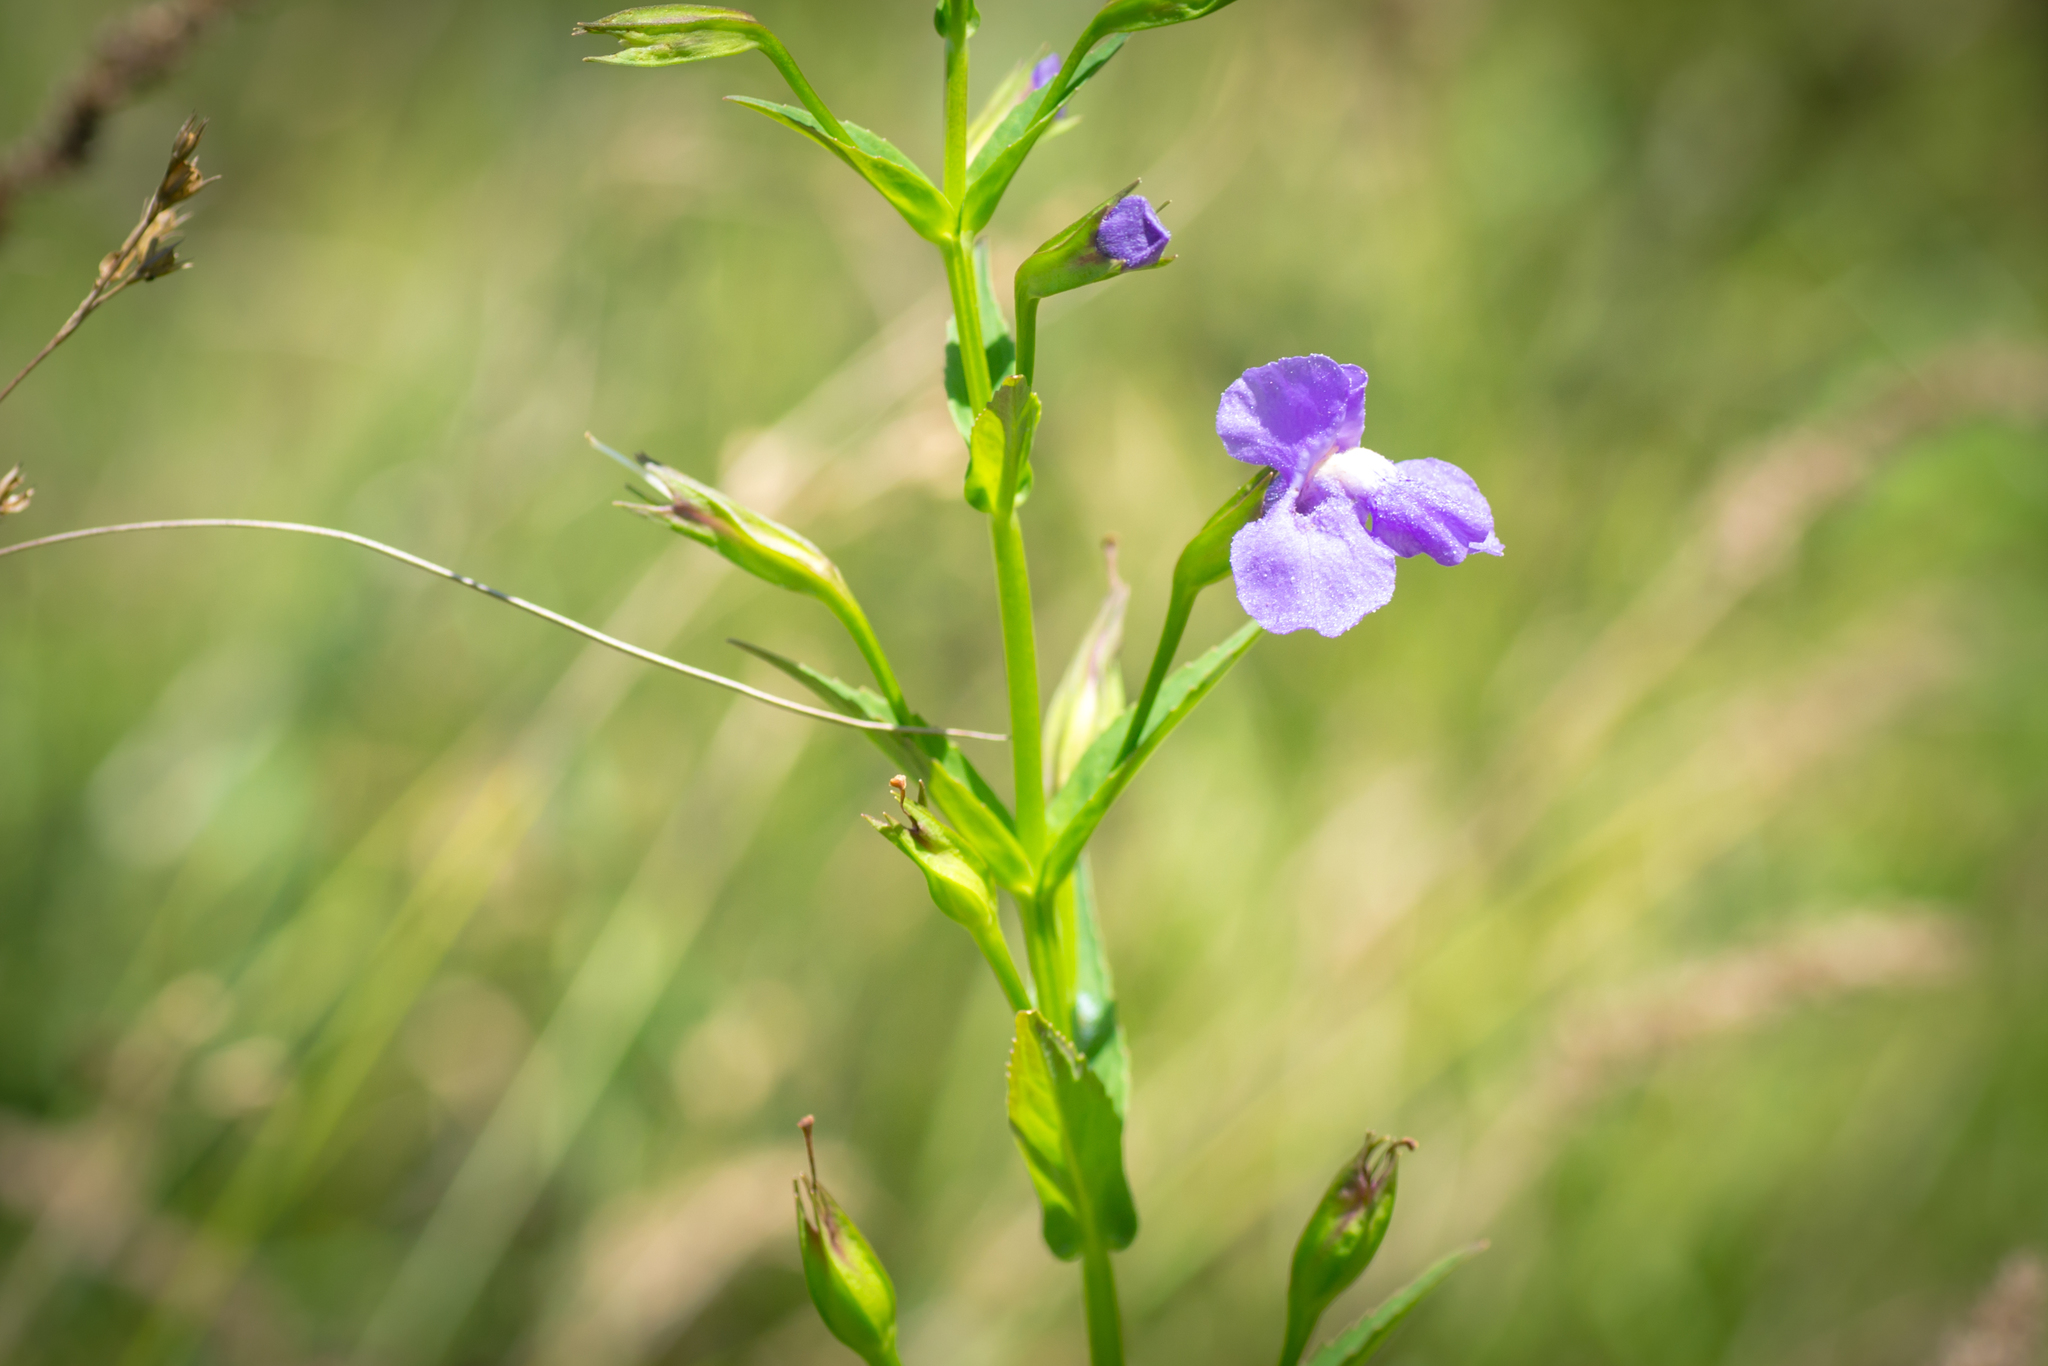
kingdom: Plantae
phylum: Tracheophyta
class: Magnoliopsida
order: Lamiales
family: Phrymaceae
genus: Mimulus
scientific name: Mimulus ringens
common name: Allegheny monkeyflower
